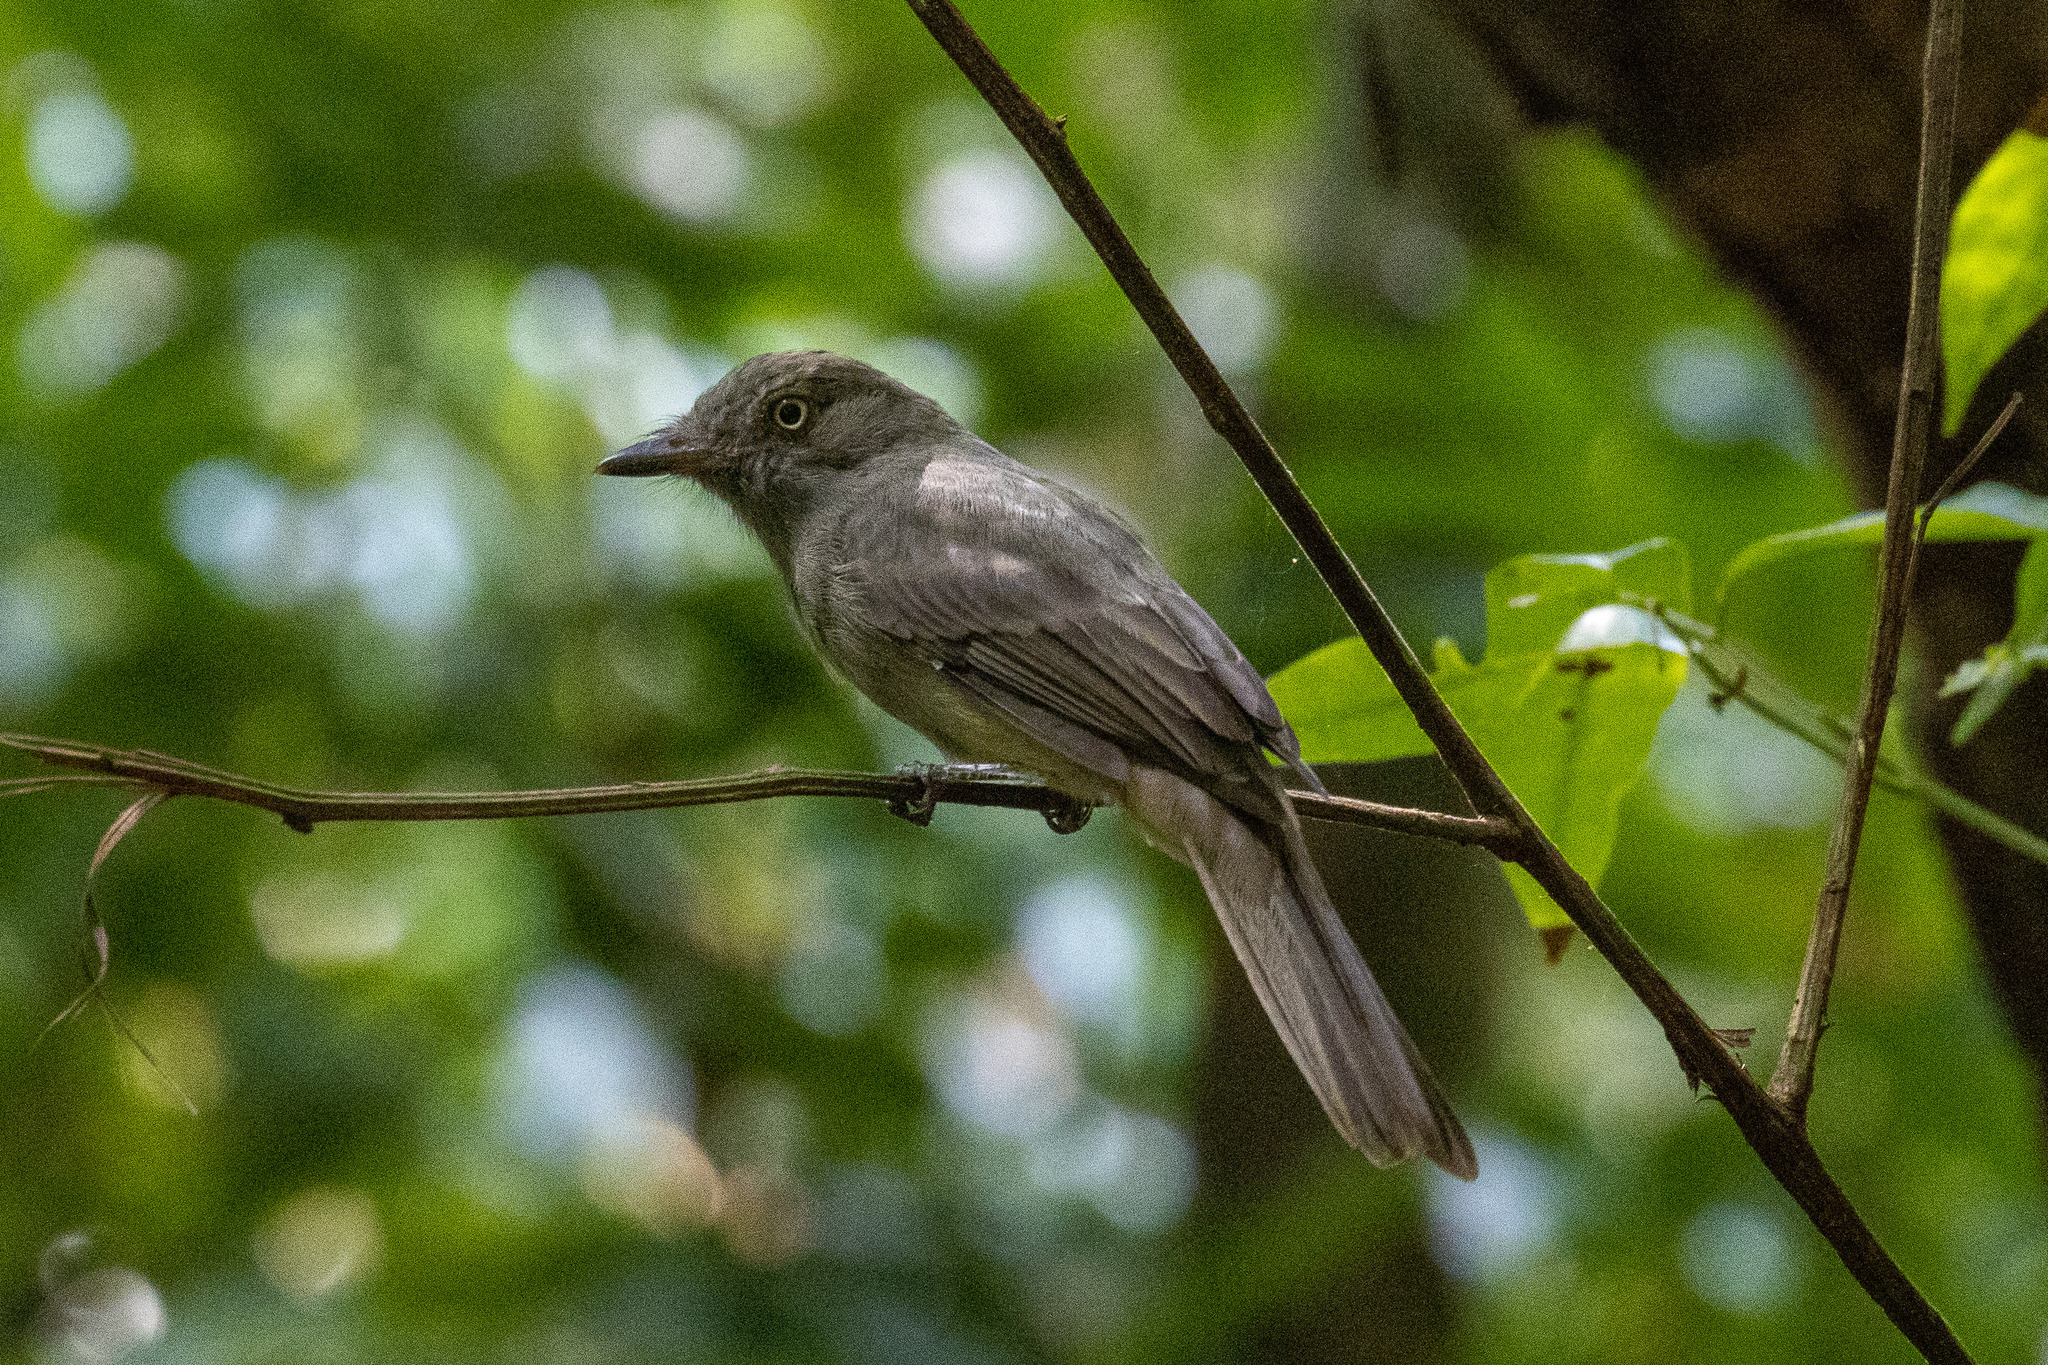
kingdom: Animalia
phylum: Chordata
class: Aves
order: Passeriformes
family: Tyrannidae
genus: Rhytipterna
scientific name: Rhytipterna simplex
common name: Greyish mourner
